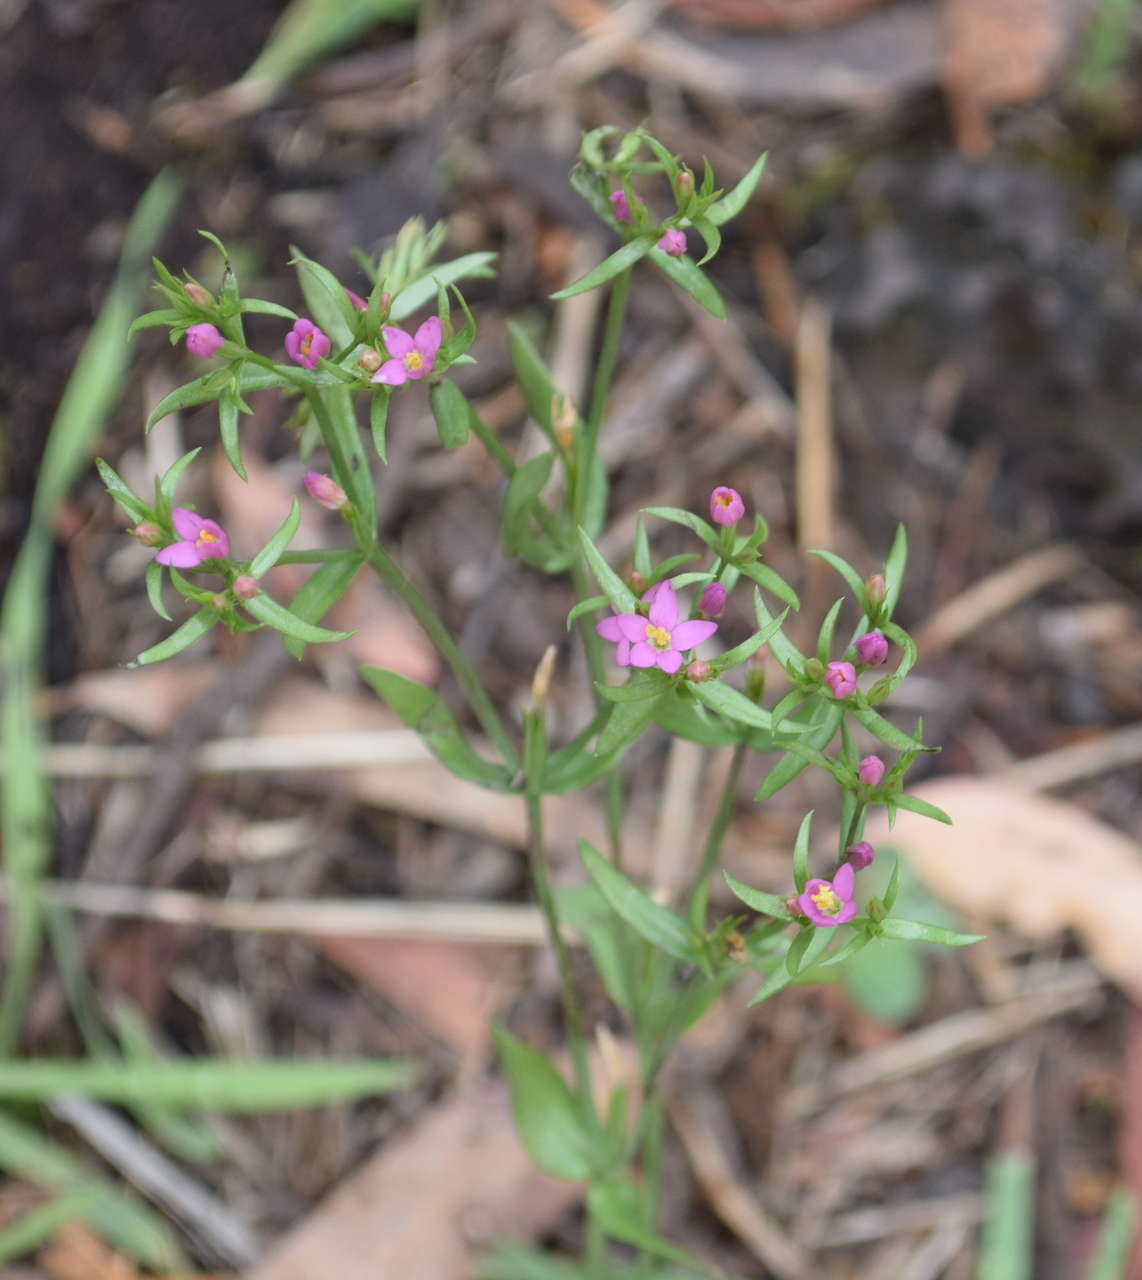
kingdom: Plantae
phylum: Tracheophyta
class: Magnoliopsida
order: Gentianales
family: Gentianaceae
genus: Centaurium
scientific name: Centaurium erythraea
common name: Common centaury
